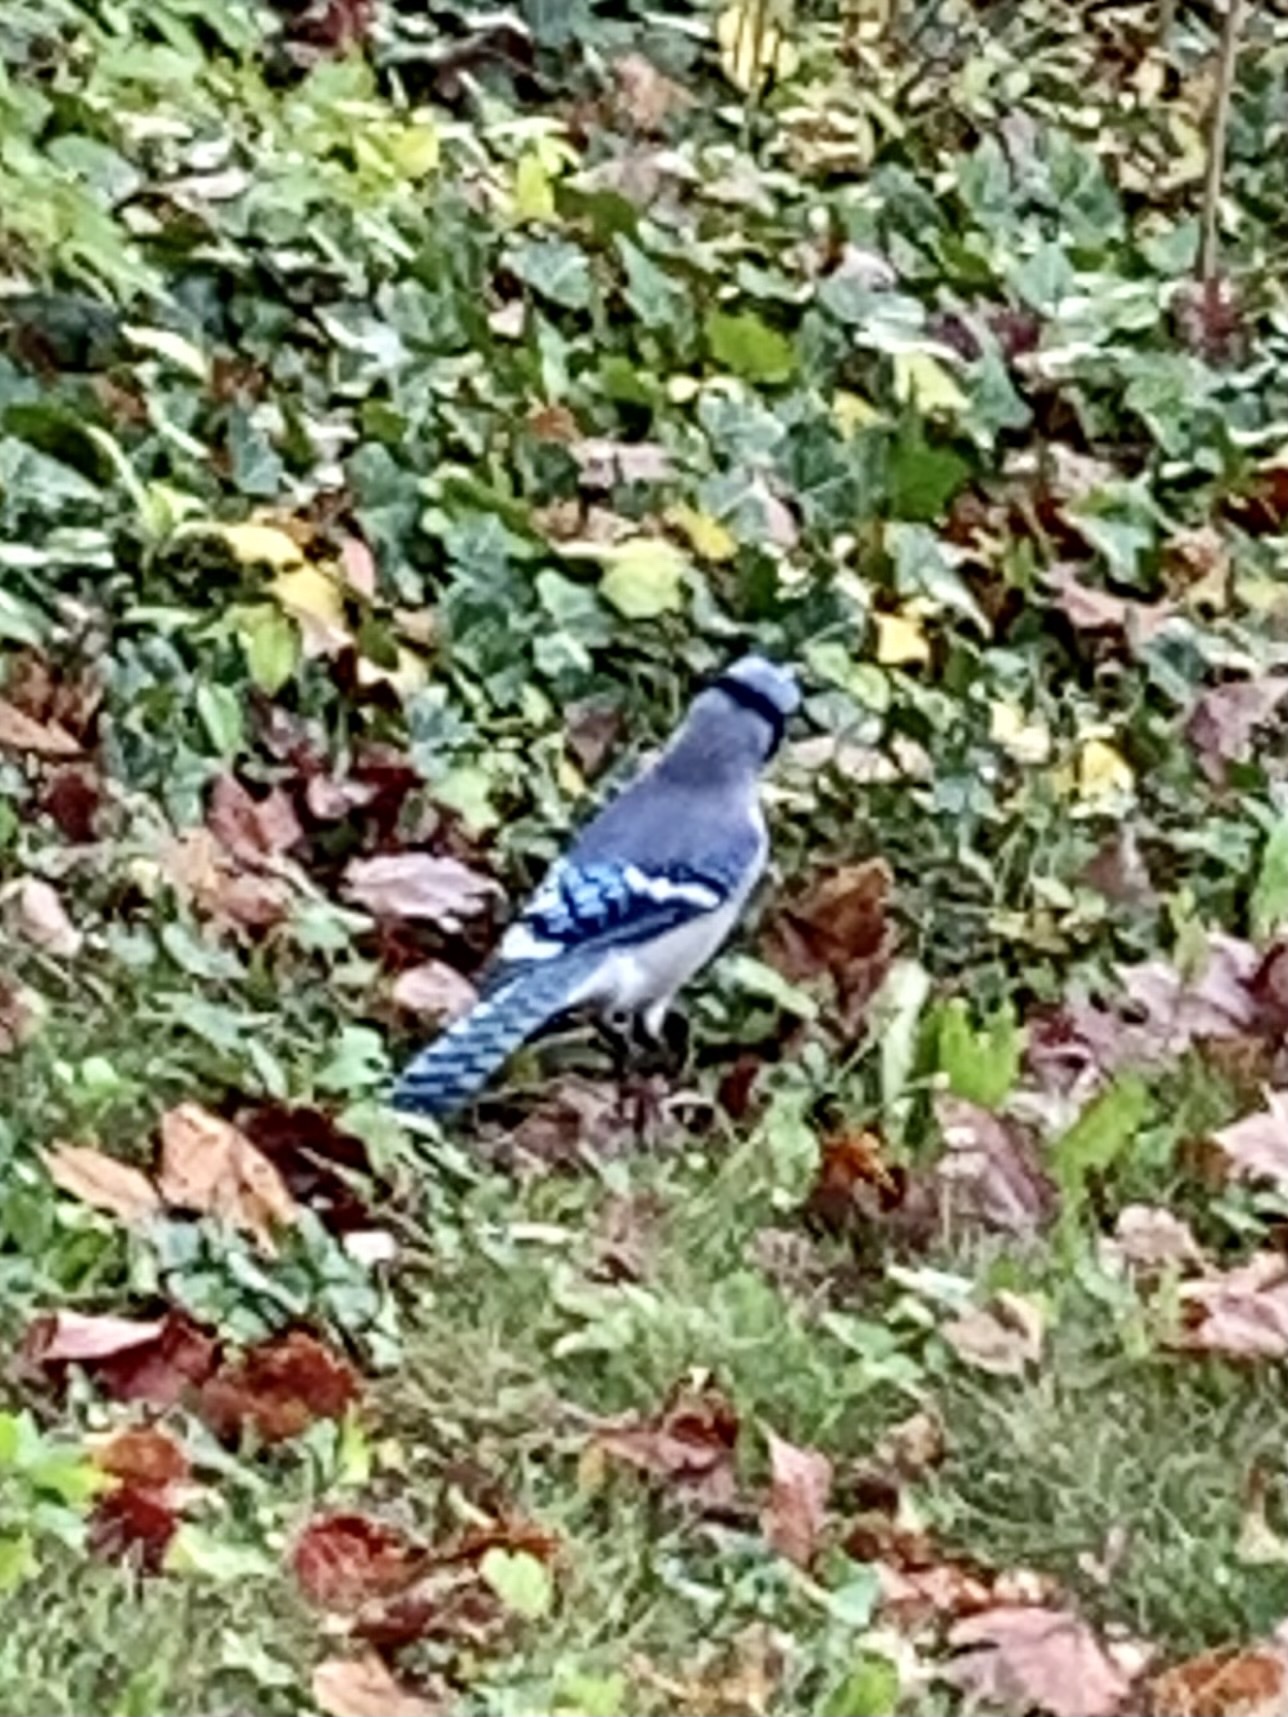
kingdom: Animalia
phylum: Chordata
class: Aves
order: Passeriformes
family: Corvidae
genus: Cyanocitta
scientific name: Cyanocitta cristata
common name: Blue jay
